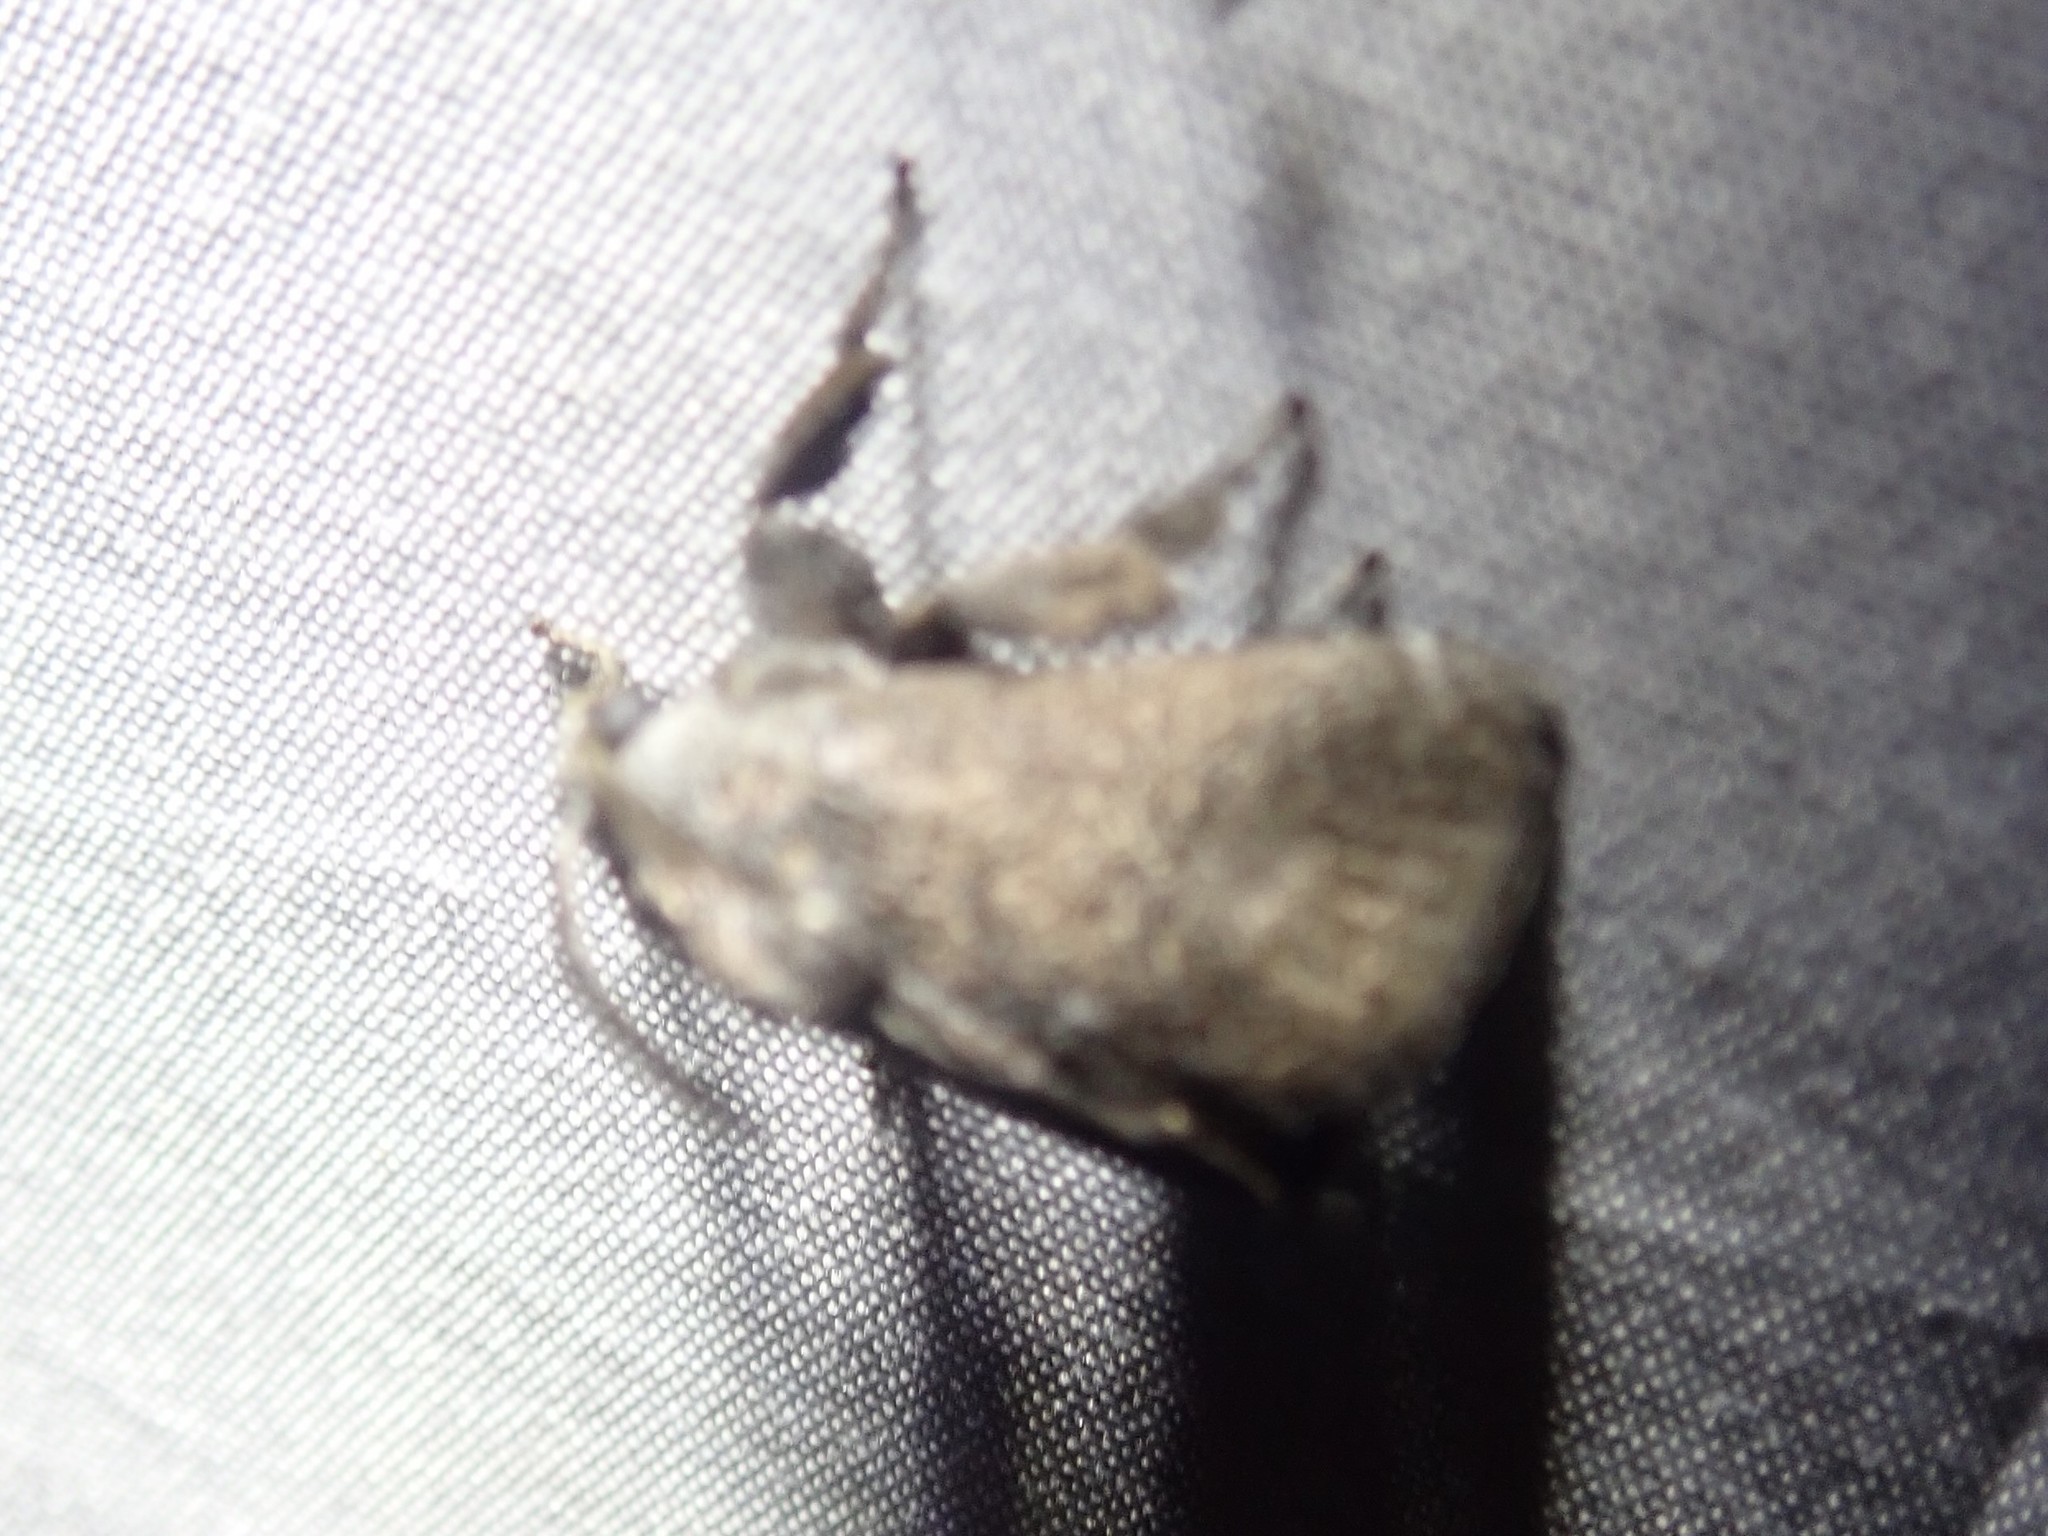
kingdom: Animalia
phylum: Arthropoda
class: Insecta
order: Lepidoptera
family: Limacodidae
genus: Epiclea
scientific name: Epiclea elaea
